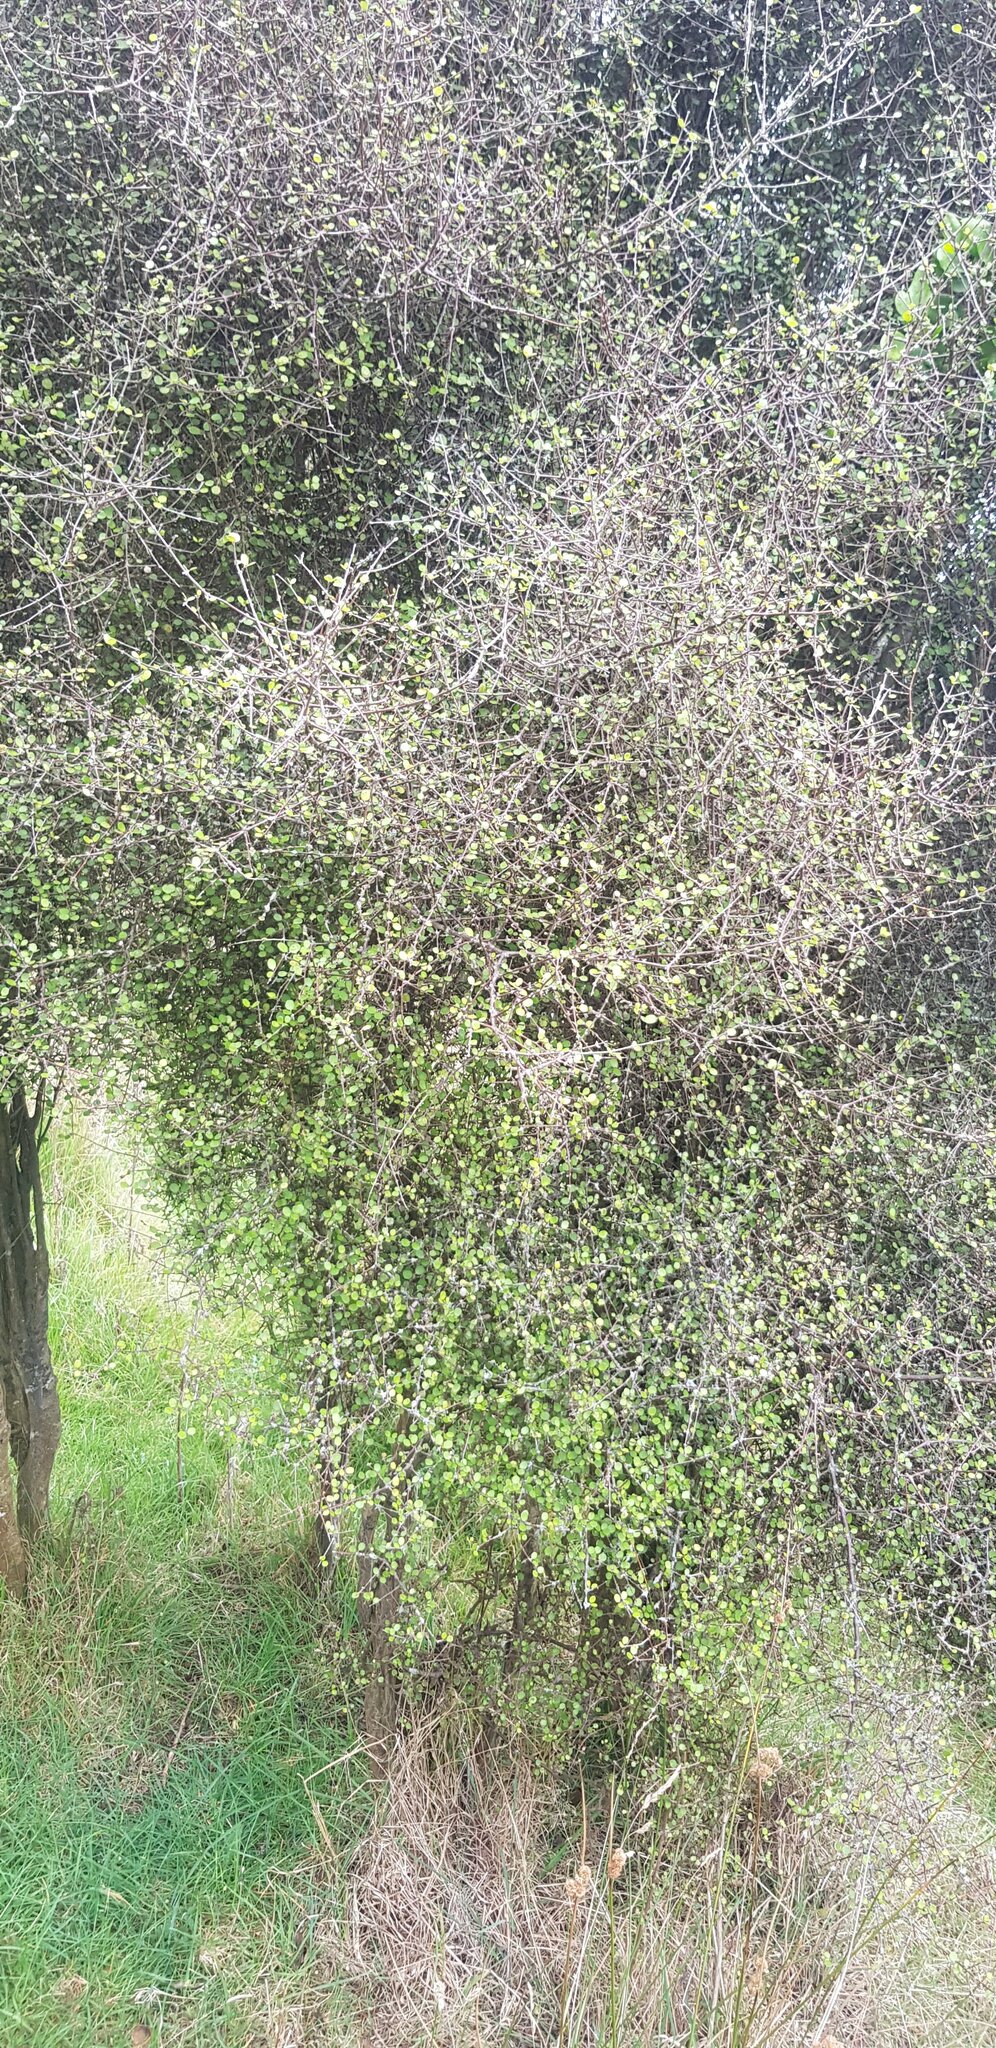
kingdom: Plantae
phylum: Tracheophyta
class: Magnoliopsida
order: Santalales
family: Loranthaceae
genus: Ileostylus
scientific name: Ileostylus micranthus
